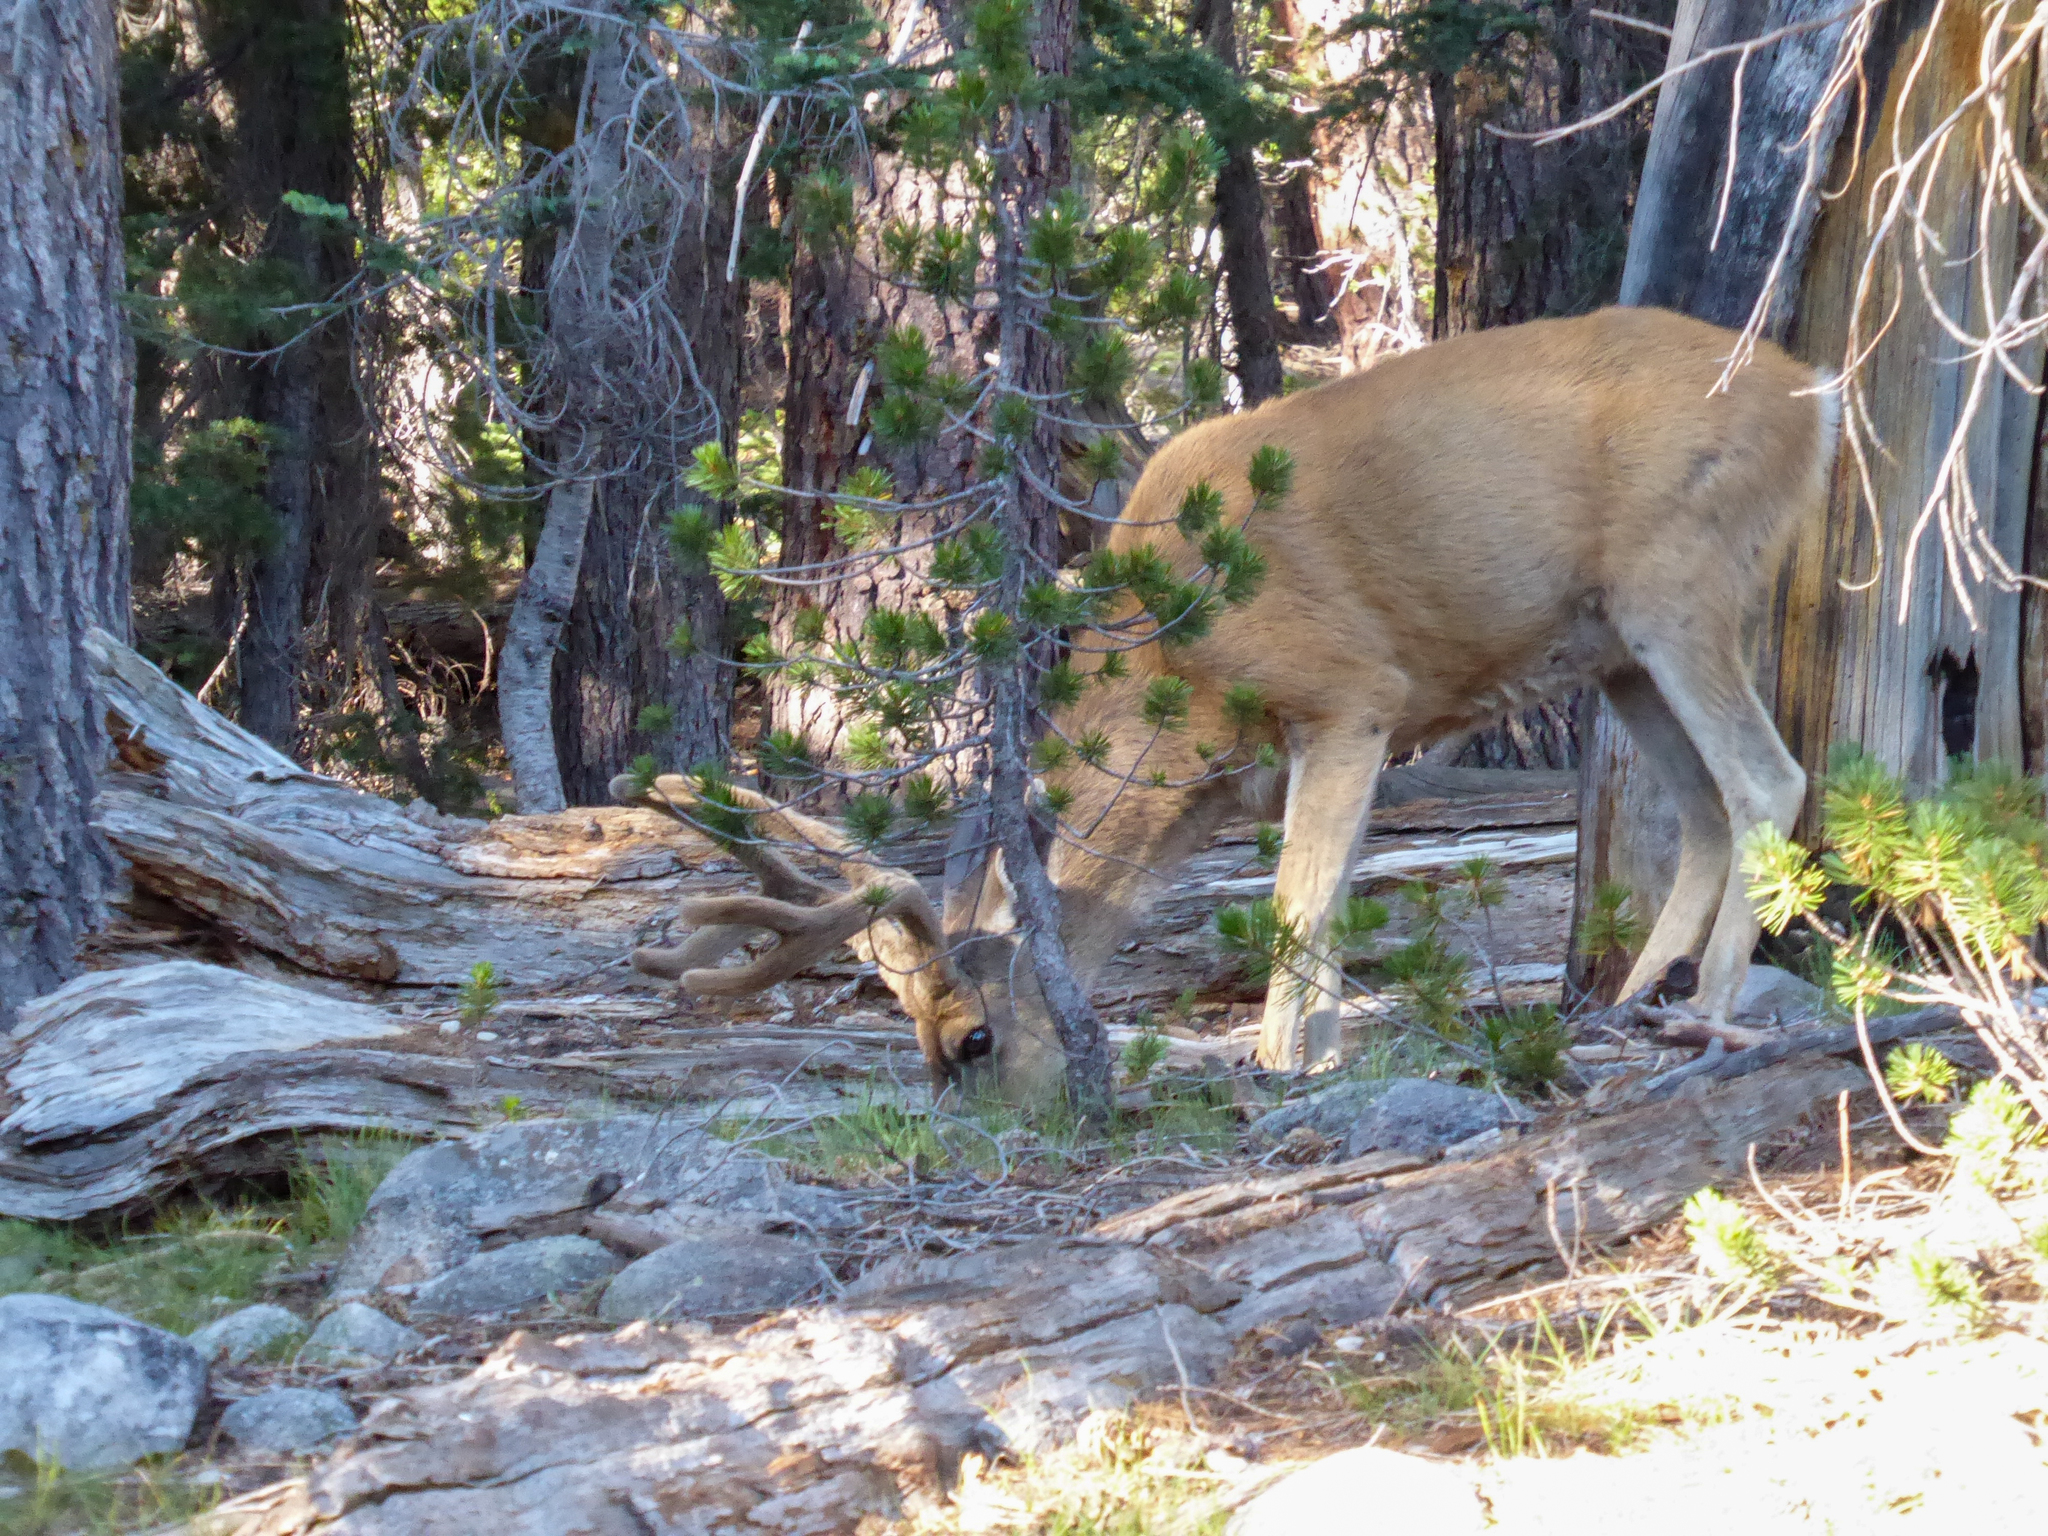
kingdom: Animalia
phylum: Chordata
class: Mammalia
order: Artiodactyla
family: Cervidae
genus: Odocoileus
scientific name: Odocoileus hemionus
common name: Mule deer
